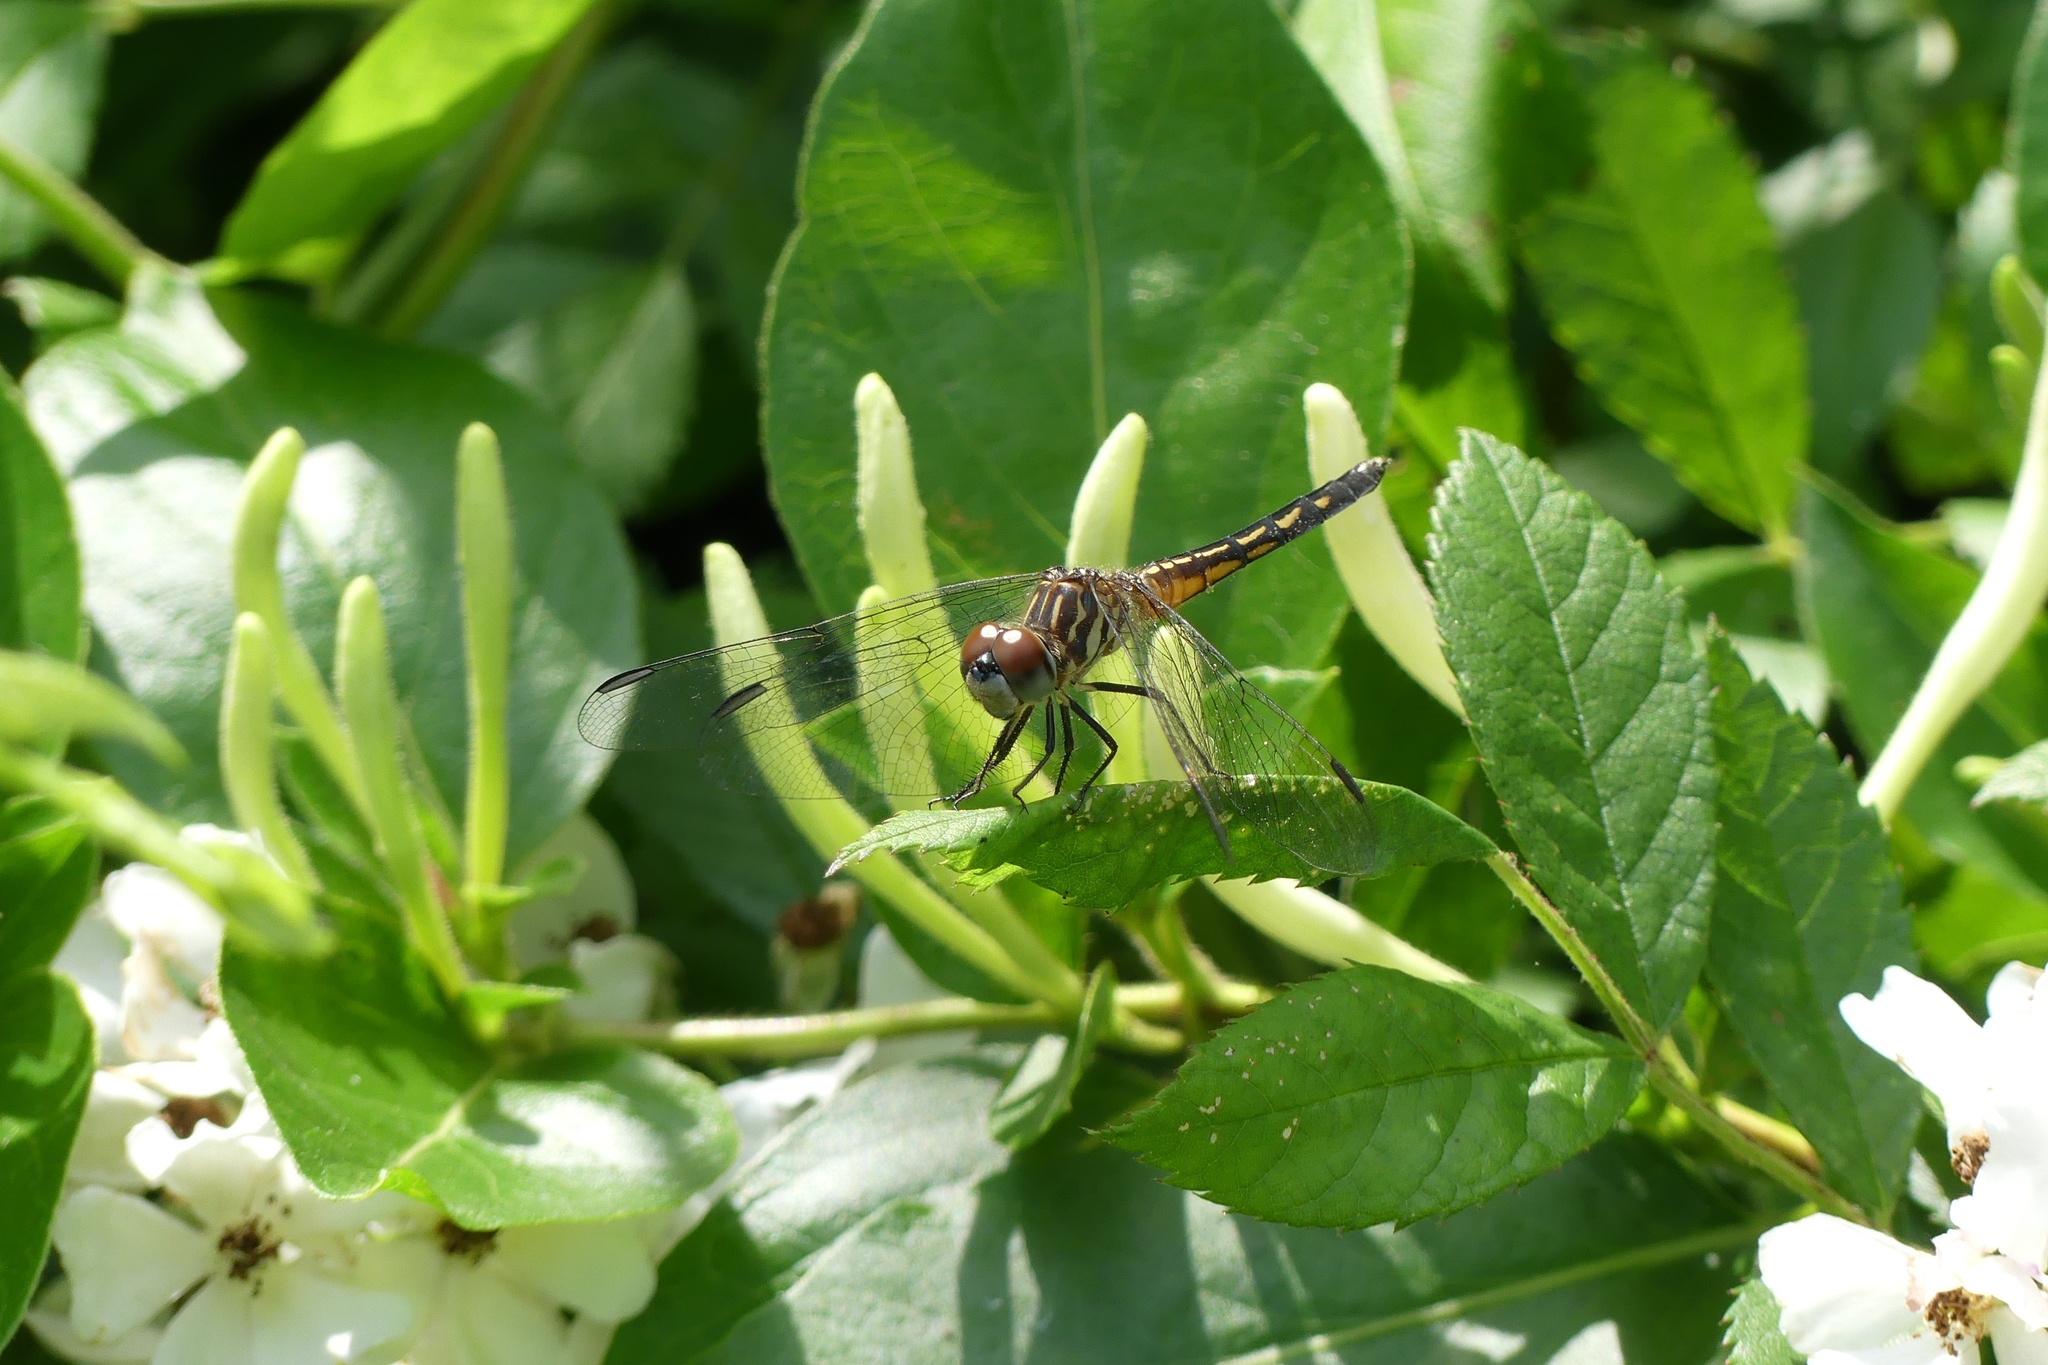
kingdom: Animalia
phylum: Arthropoda
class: Insecta
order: Odonata
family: Libellulidae
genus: Pachydiplax
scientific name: Pachydiplax longipennis
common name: Blue dasher
